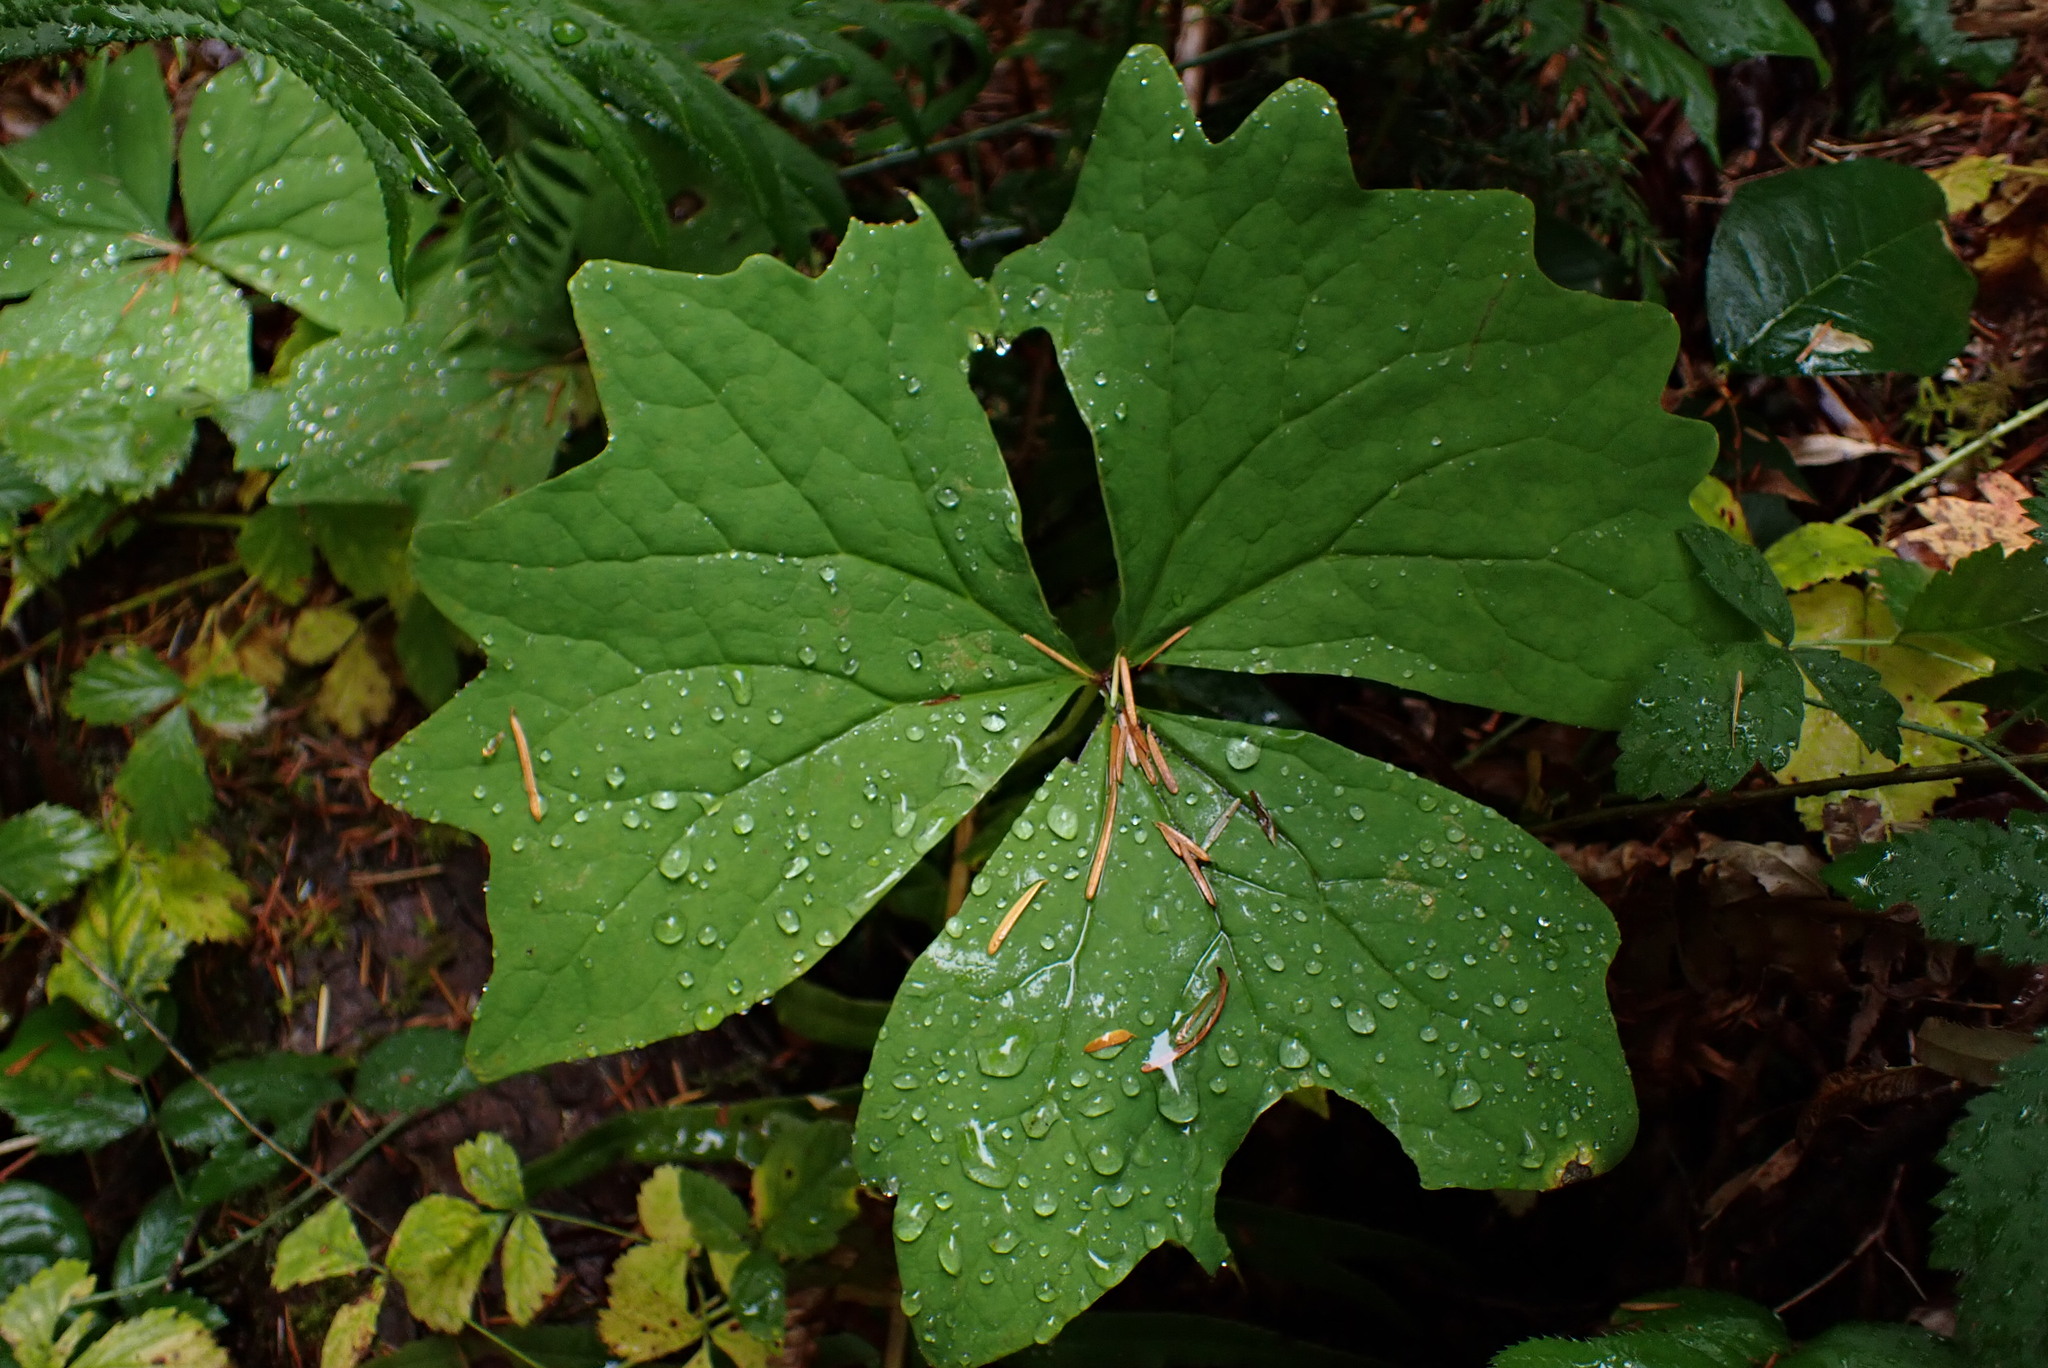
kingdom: Plantae
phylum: Tracheophyta
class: Magnoliopsida
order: Ranunculales
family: Berberidaceae
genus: Achlys
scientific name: Achlys triphylla
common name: Vanilla-leaf
